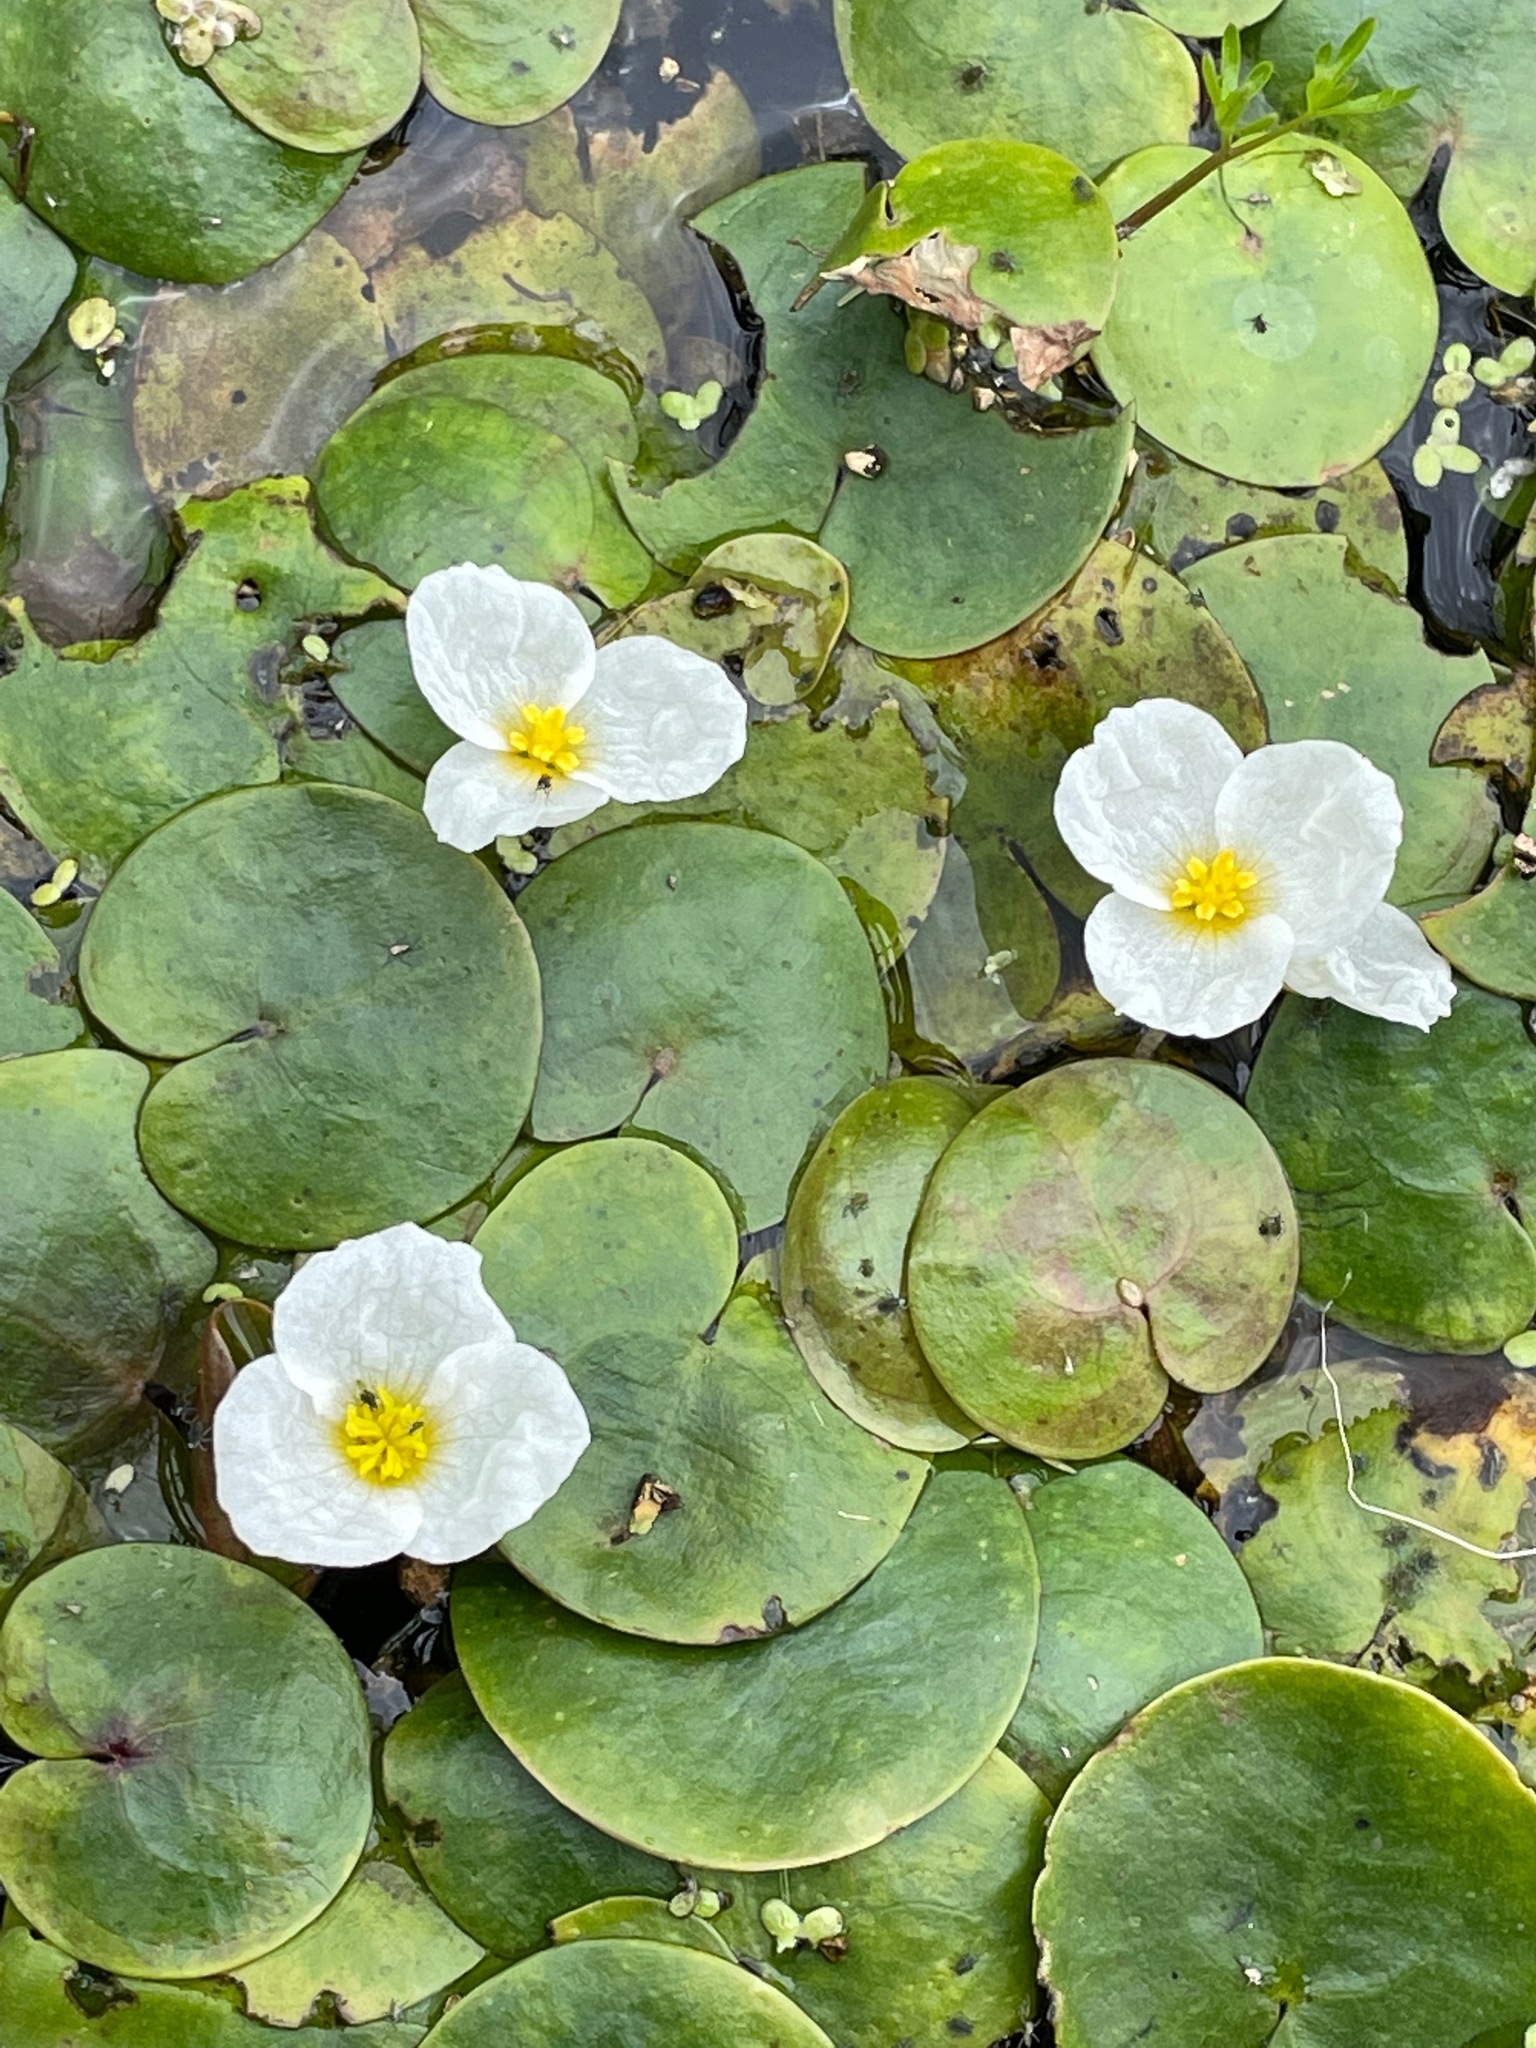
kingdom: Plantae
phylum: Tracheophyta
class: Liliopsida
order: Alismatales
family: Hydrocharitaceae
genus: Hydrocharis
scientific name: Hydrocharis morsus-ranae
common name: Frogbit
